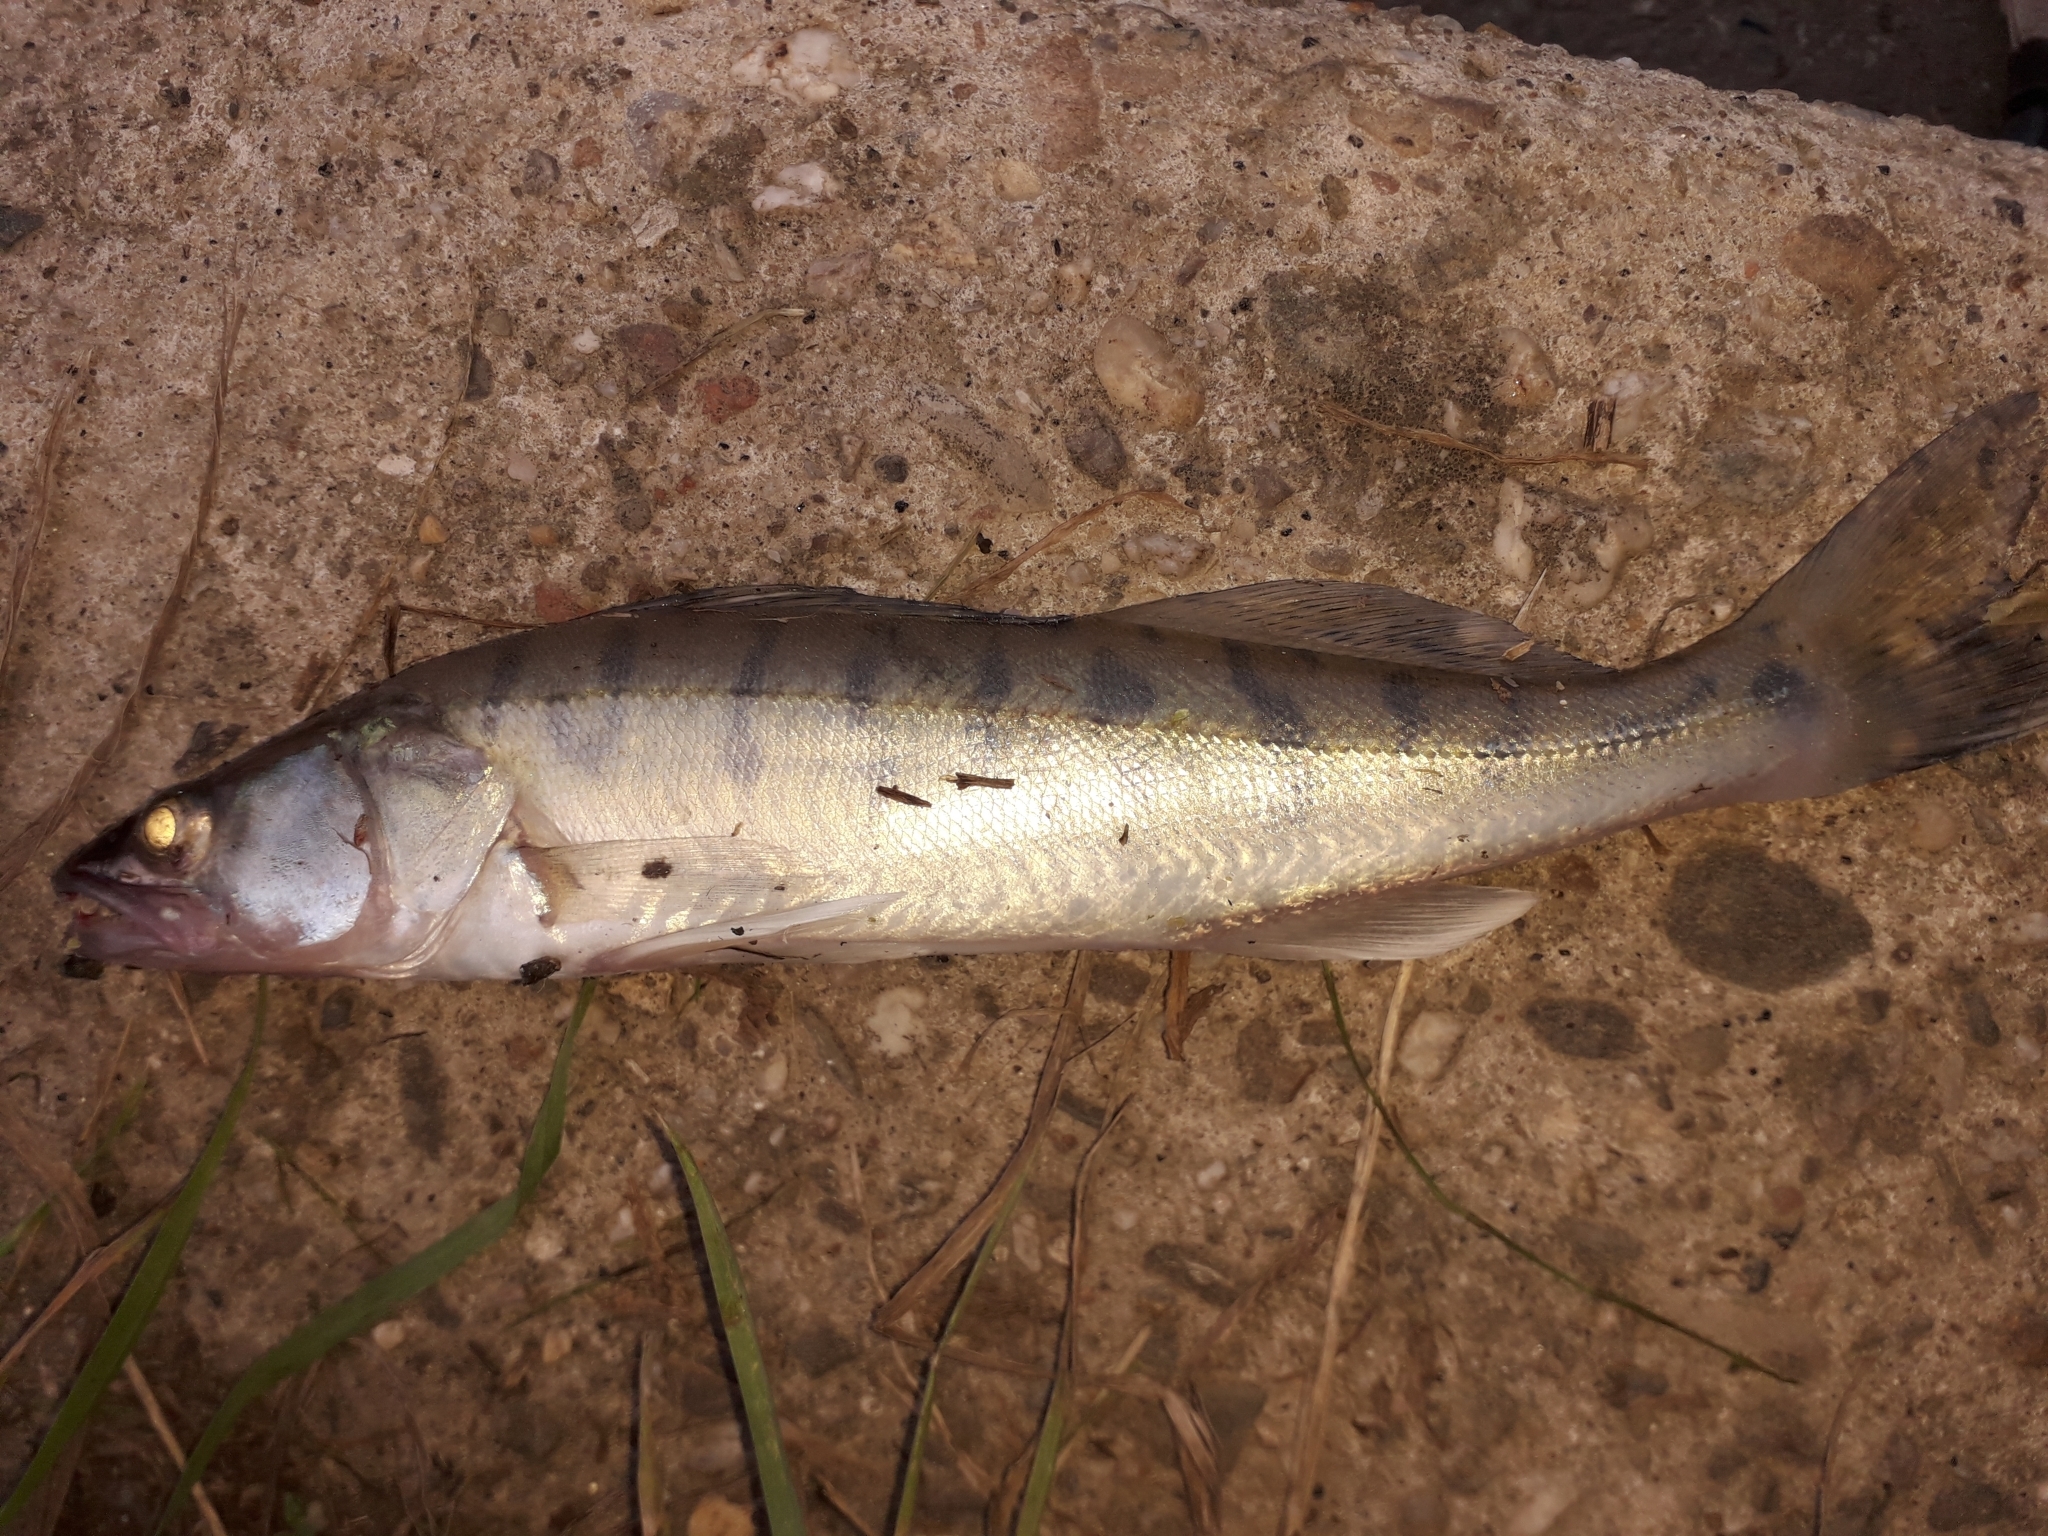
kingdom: Animalia
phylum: Chordata
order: Perciformes
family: Percidae
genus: Sander
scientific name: Sander lucioperca
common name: Pikeperch
